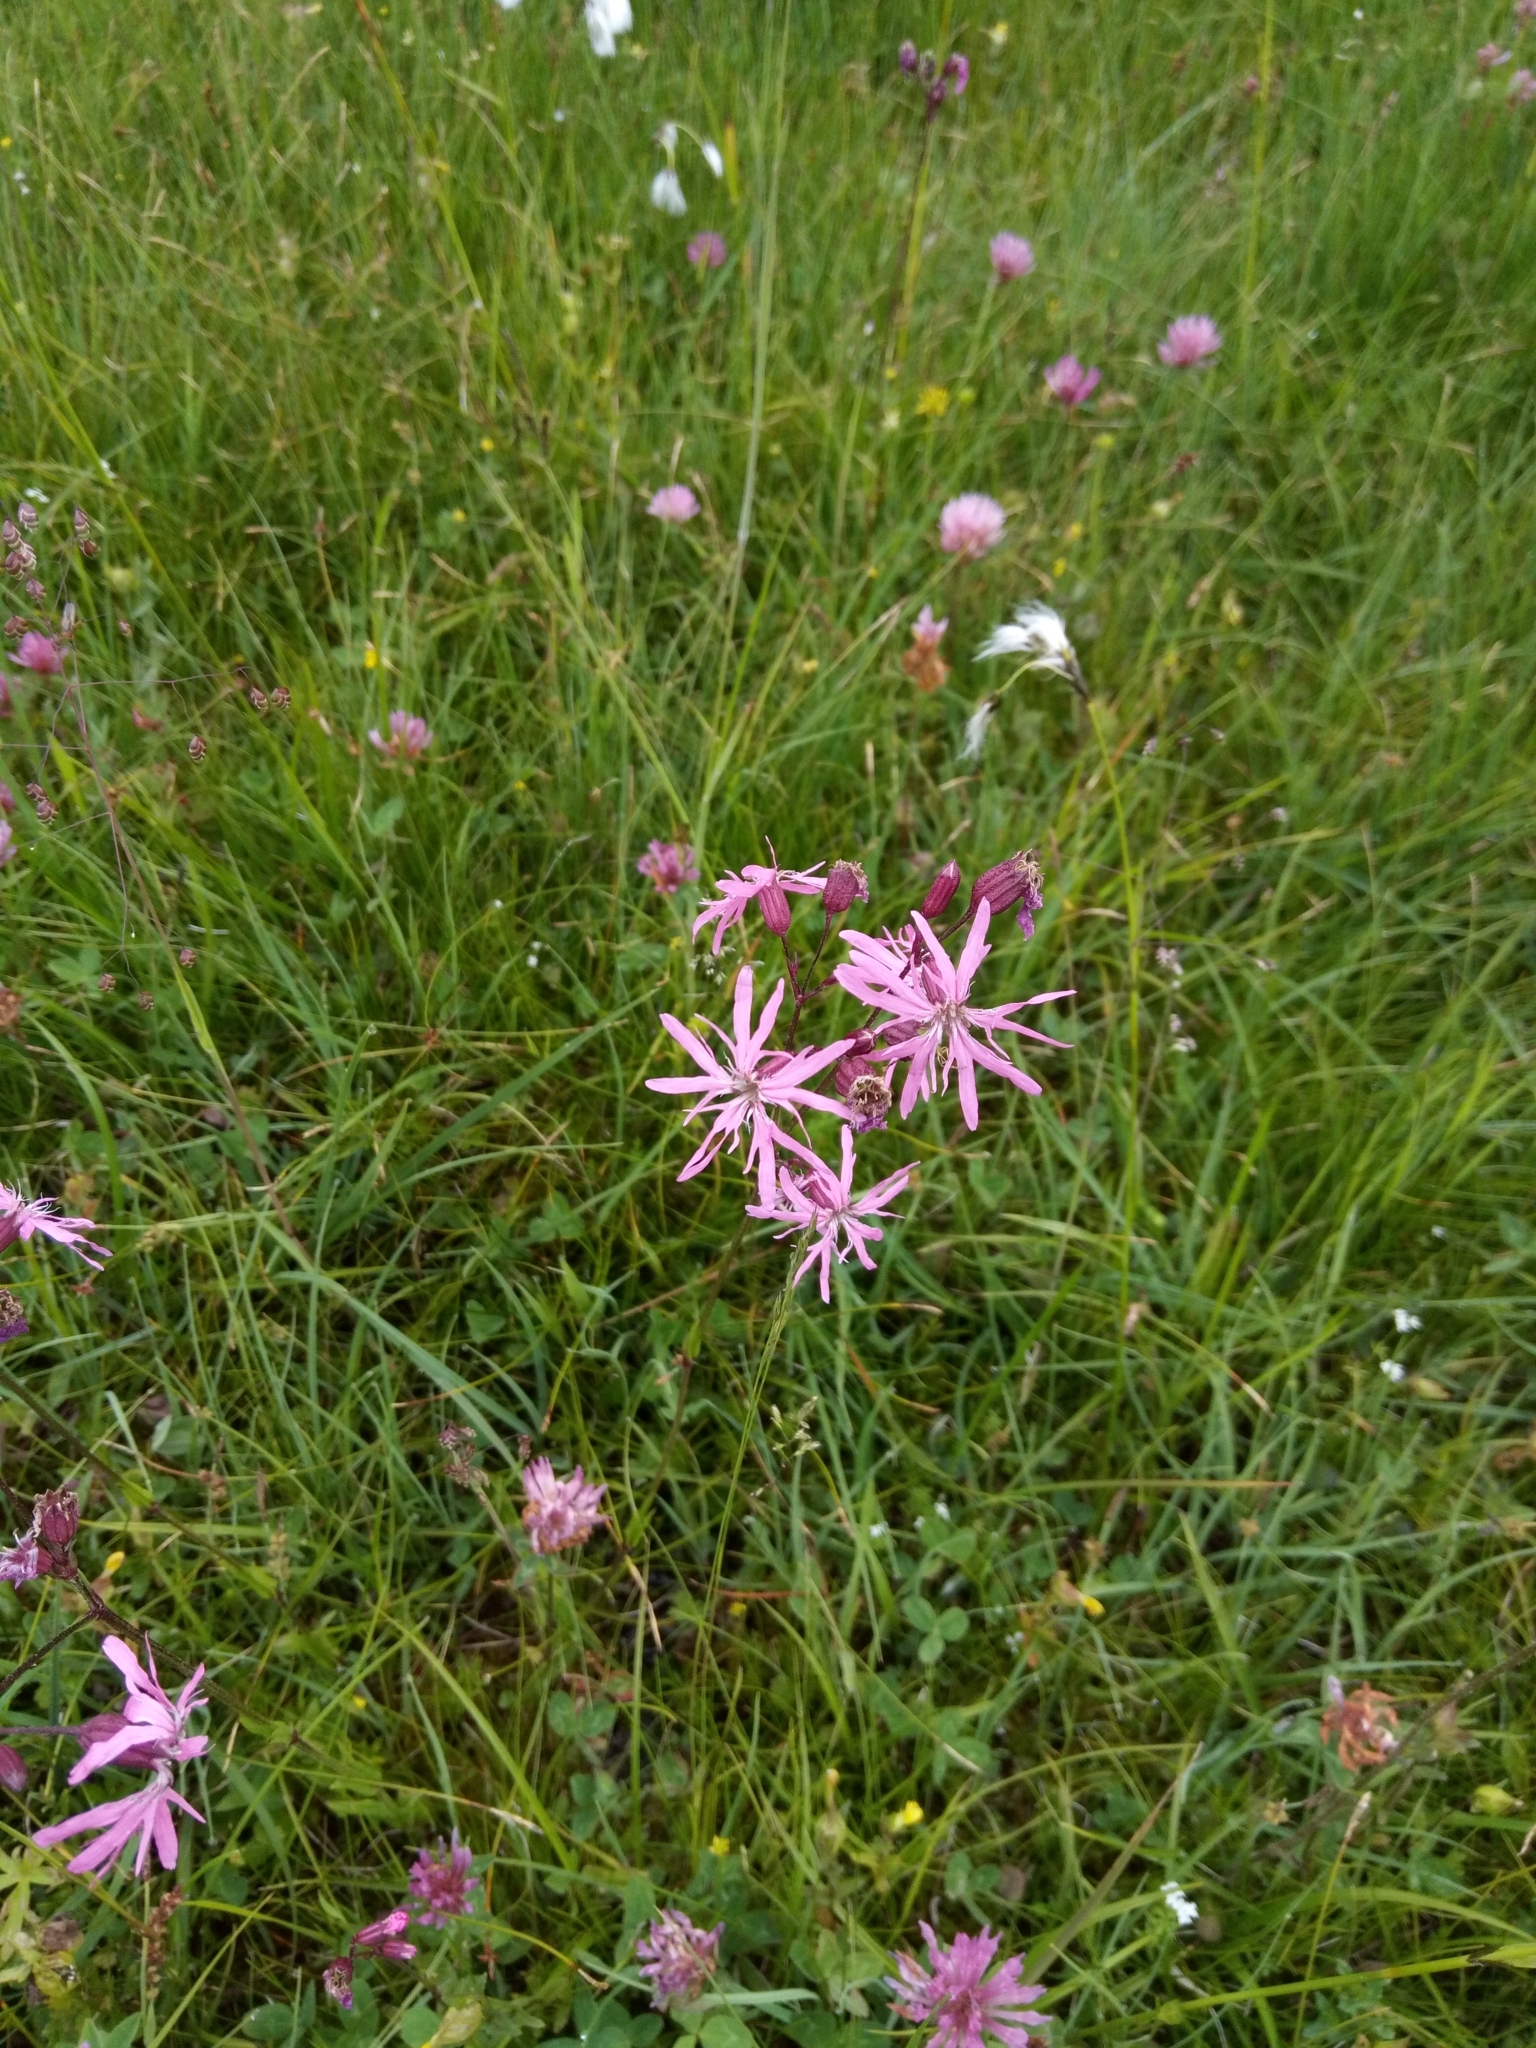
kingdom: Plantae
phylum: Tracheophyta
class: Magnoliopsida
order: Caryophyllales
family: Caryophyllaceae
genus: Silene
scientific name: Silene flos-cuculi
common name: Ragged-robin
